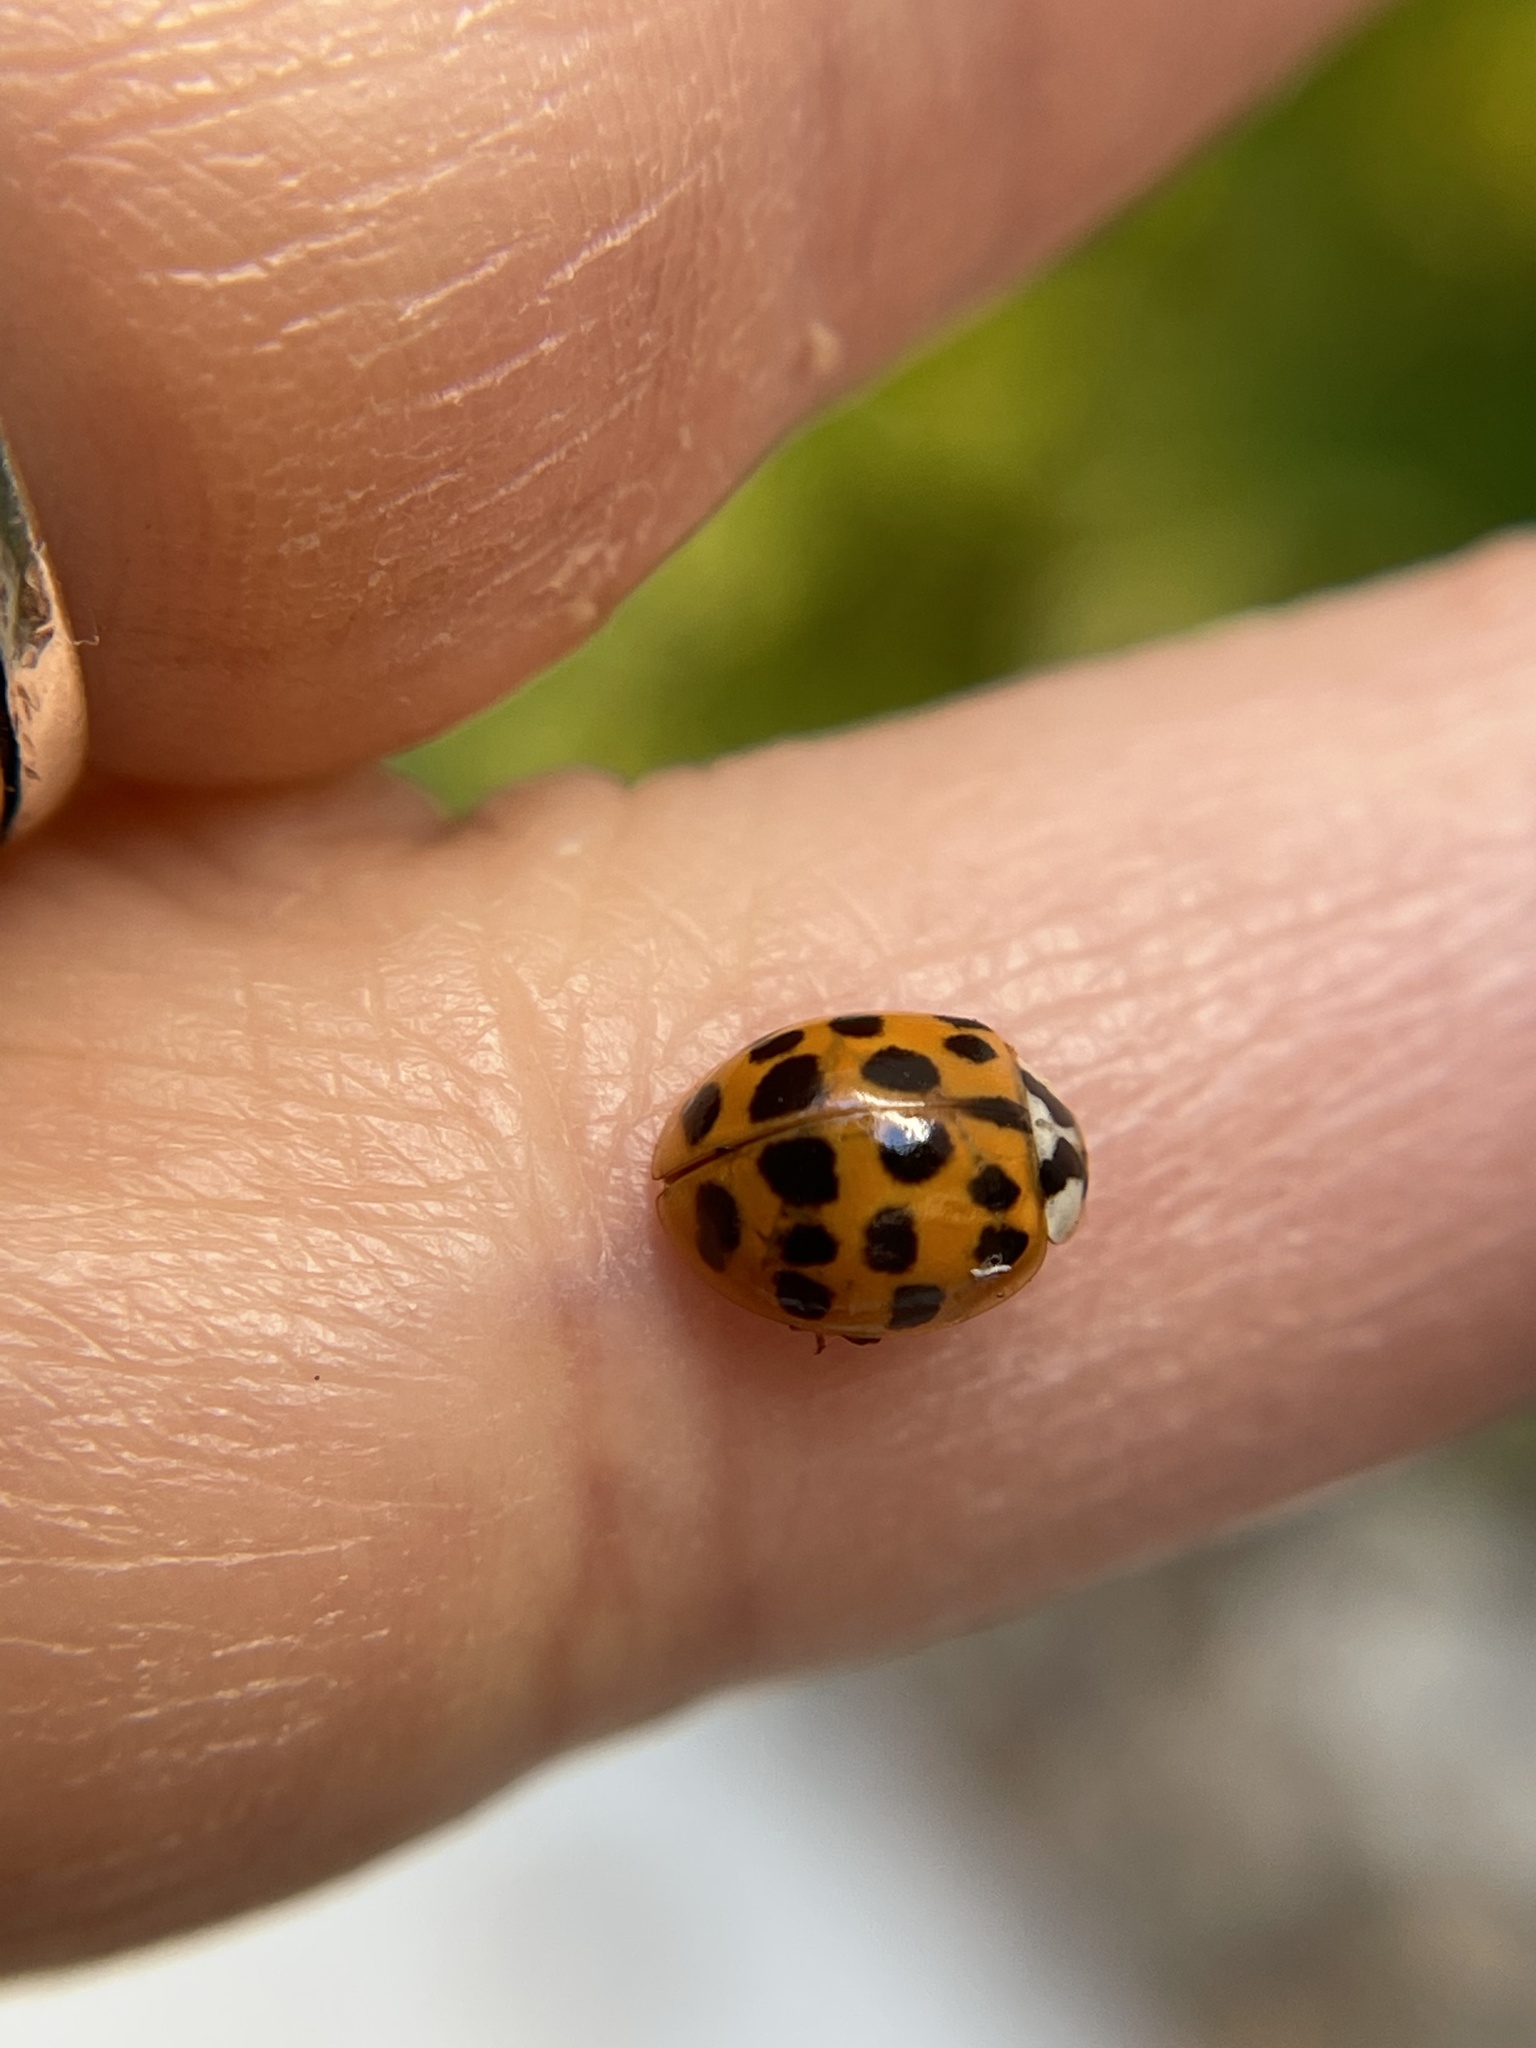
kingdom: Animalia
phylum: Arthropoda
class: Insecta
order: Coleoptera
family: Coccinellidae
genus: Harmonia
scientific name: Harmonia axyridis
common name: Harlequin ladybird
